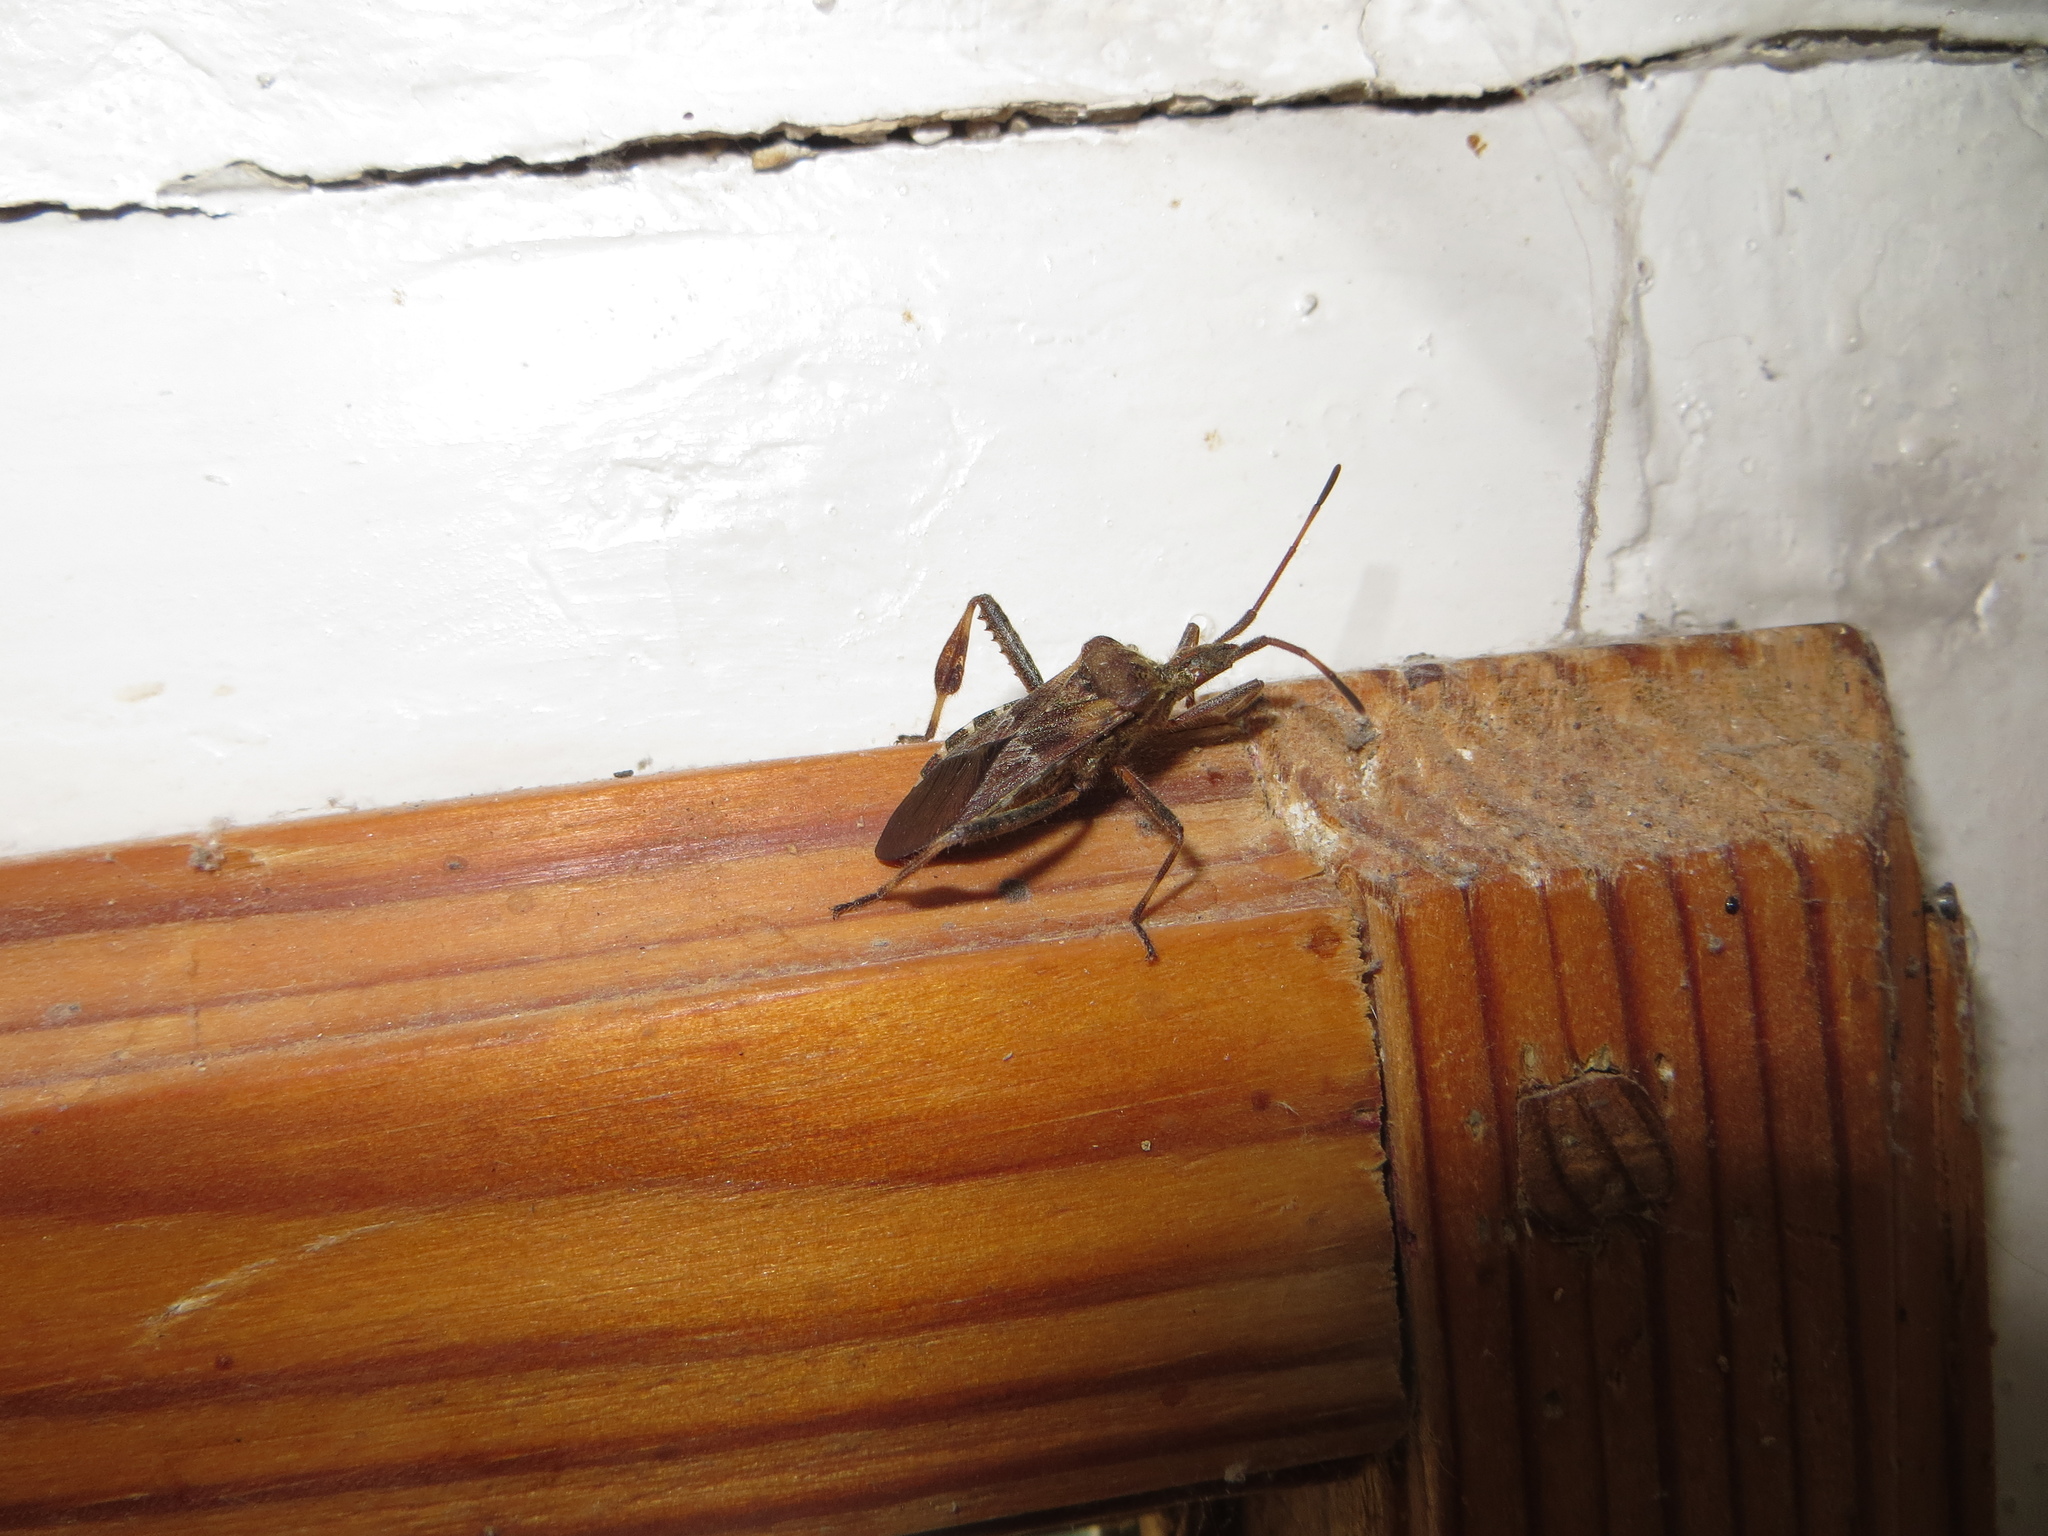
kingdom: Animalia
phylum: Arthropoda
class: Insecta
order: Hemiptera
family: Coreidae
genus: Leptoglossus
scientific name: Leptoglossus occidentalis
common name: Western conifer-seed bug
